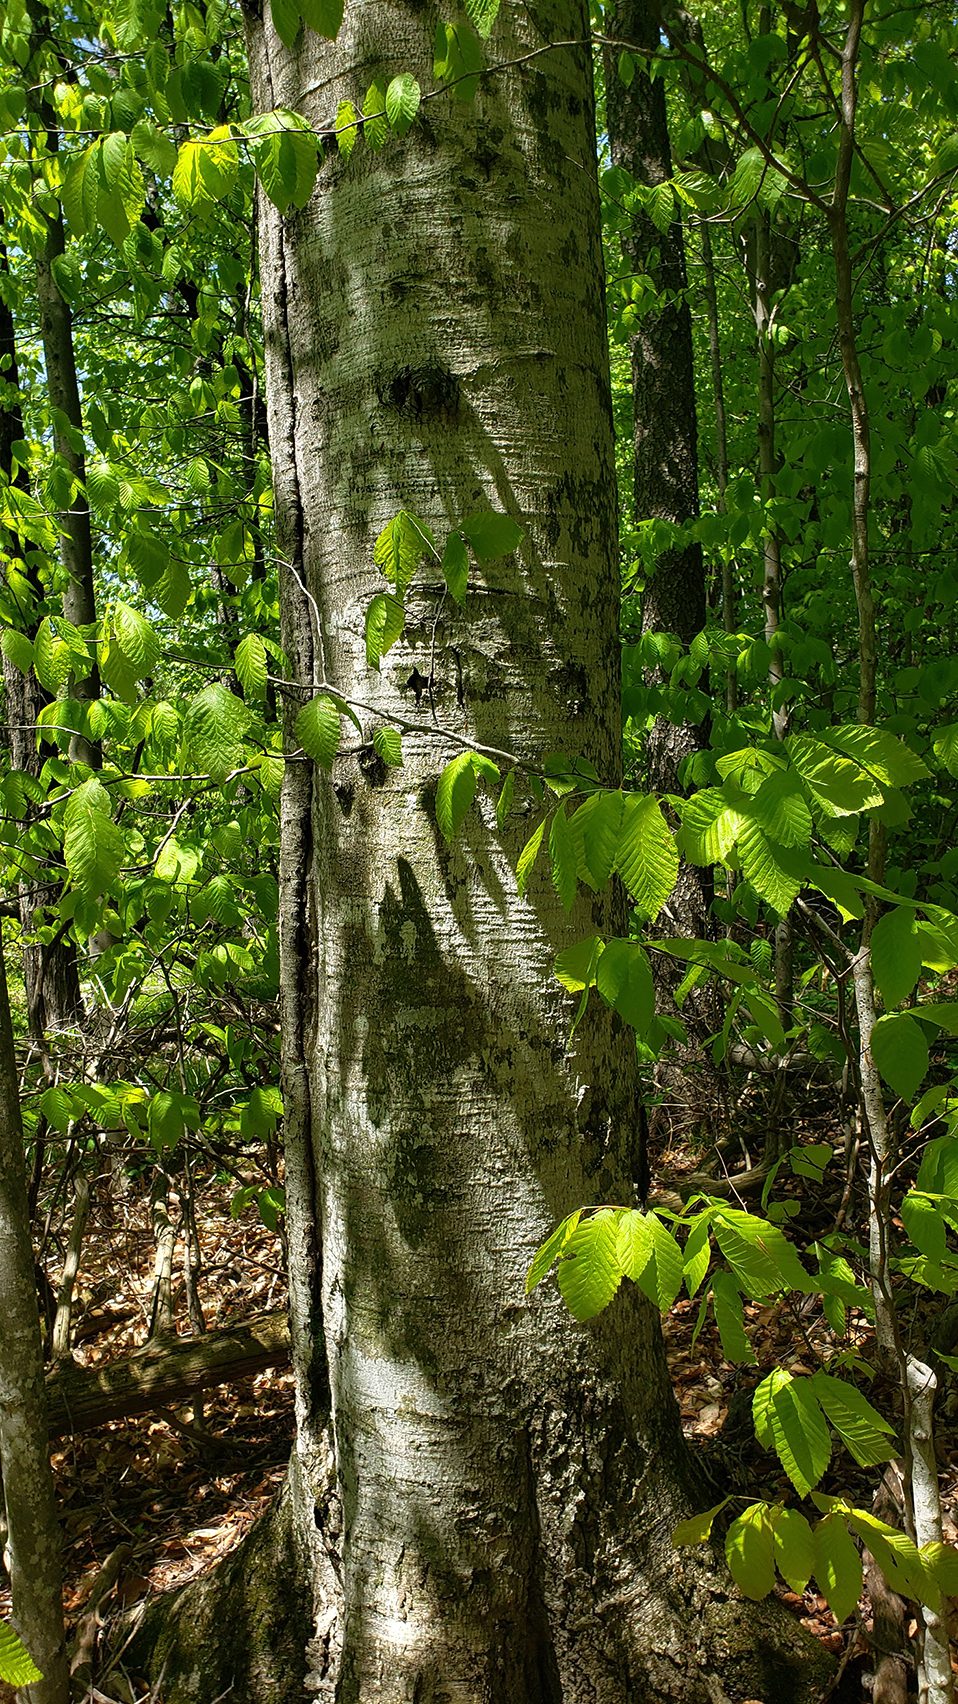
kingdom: Plantae
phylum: Tracheophyta
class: Magnoliopsida
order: Fagales
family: Fagaceae
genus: Fagus
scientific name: Fagus grandifolia
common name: American beech
